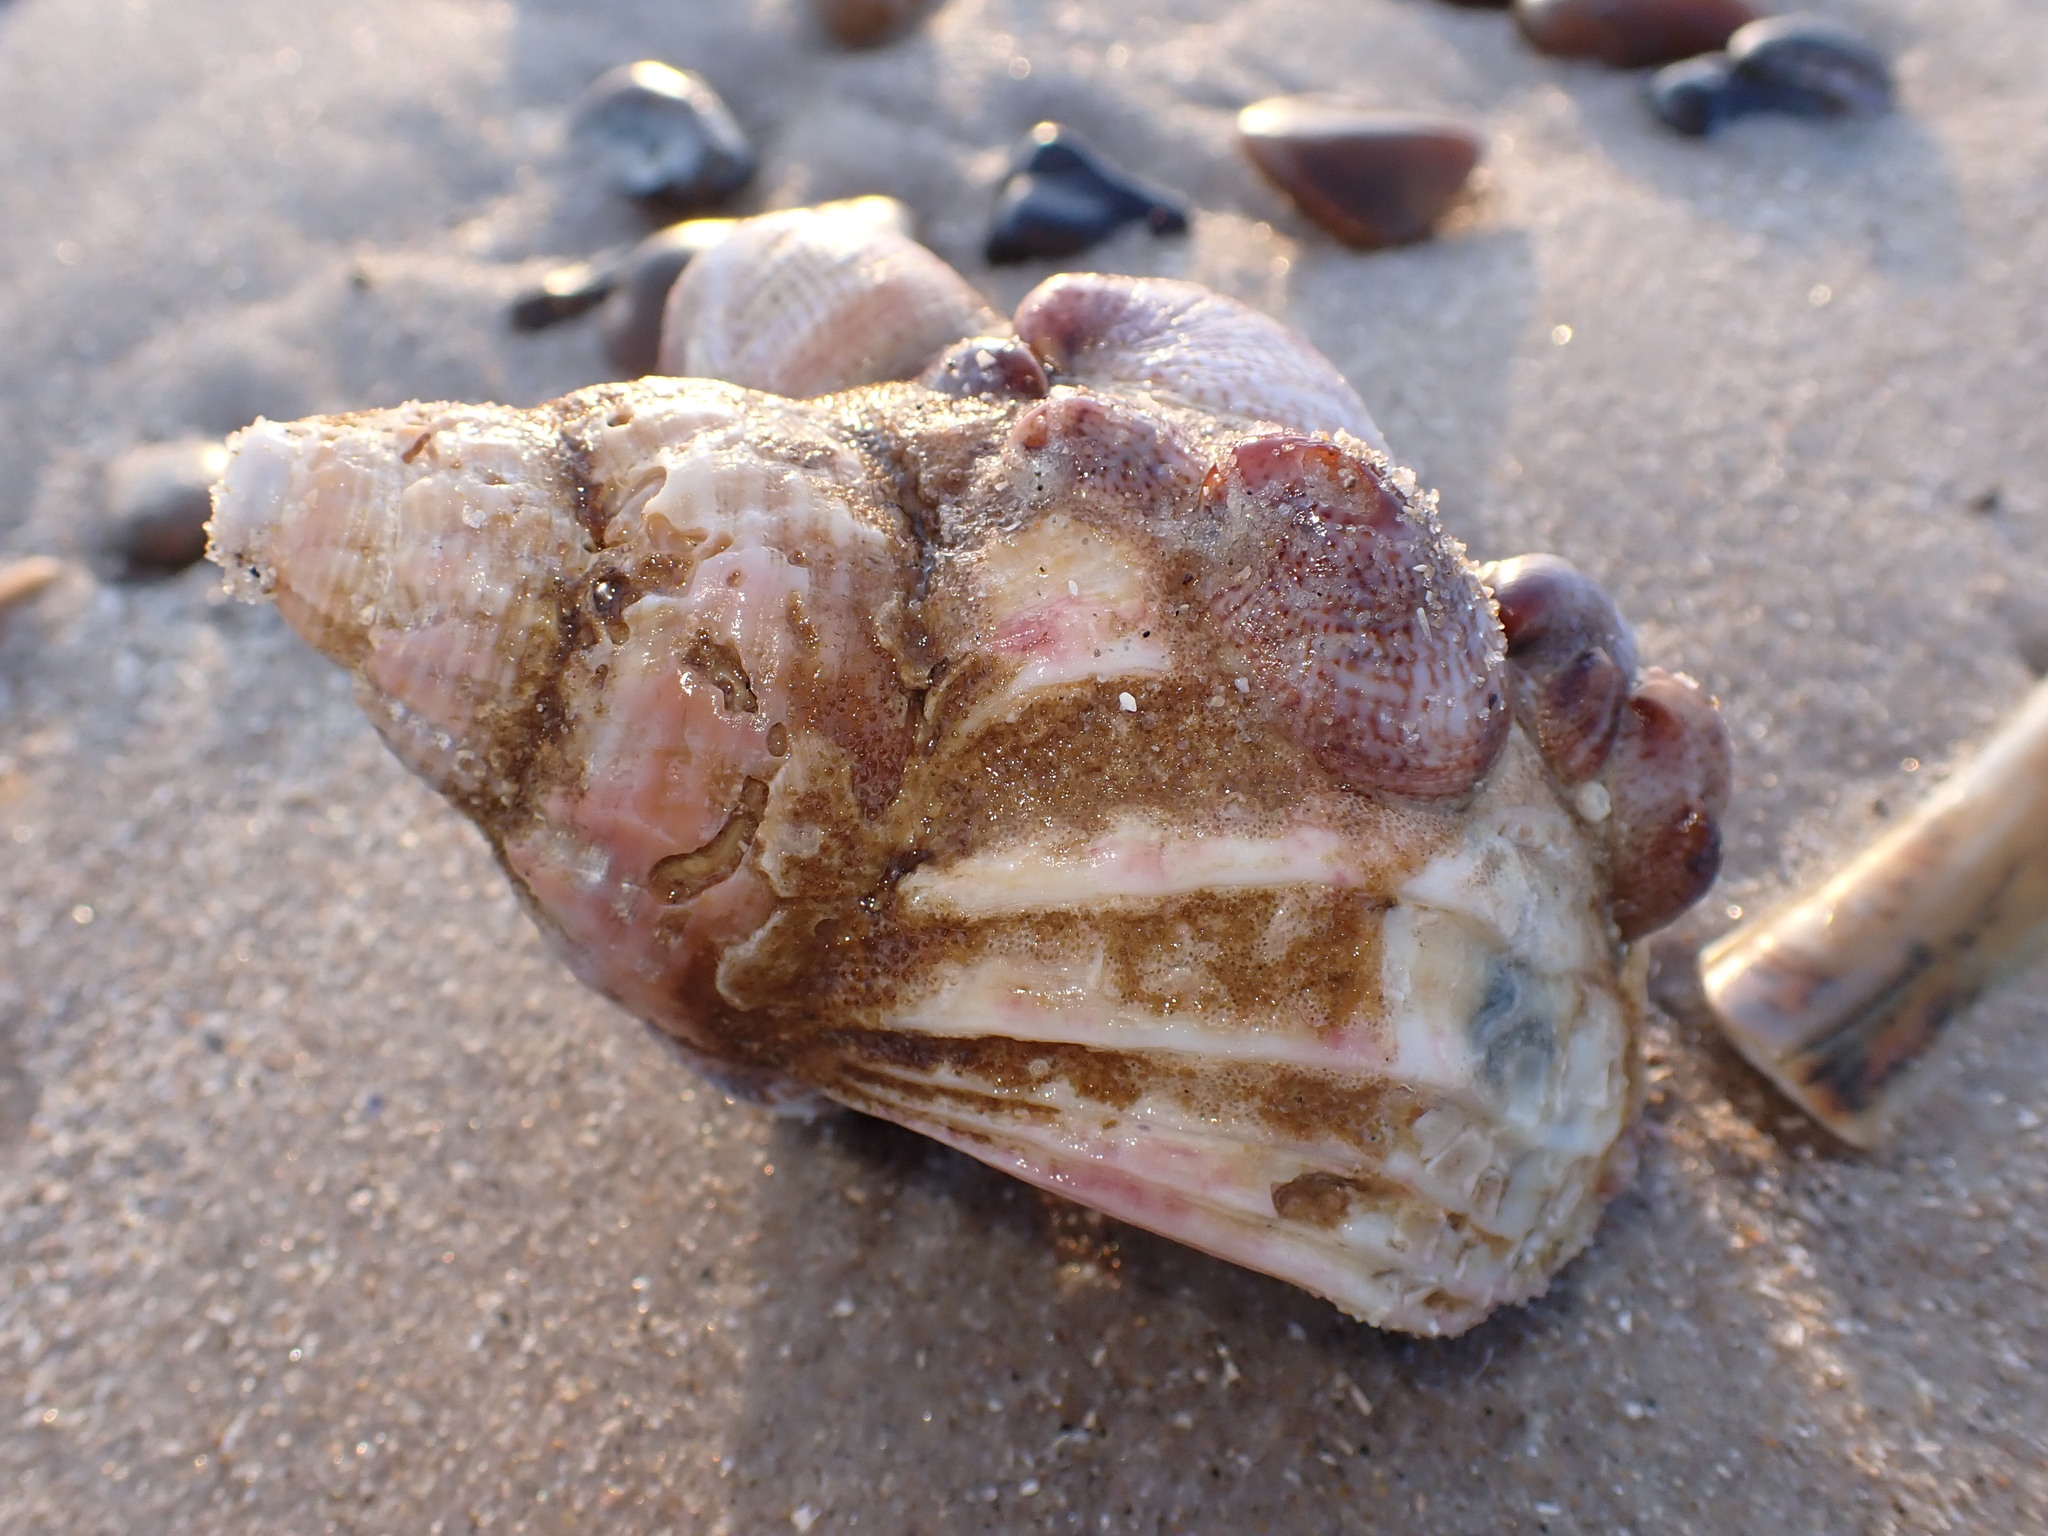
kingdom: Animalia
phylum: Mollusca
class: Gastropoda
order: Neogastropoda
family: Buccinidae
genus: Buccinum
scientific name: Buccinum undatum
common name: Common whelk
